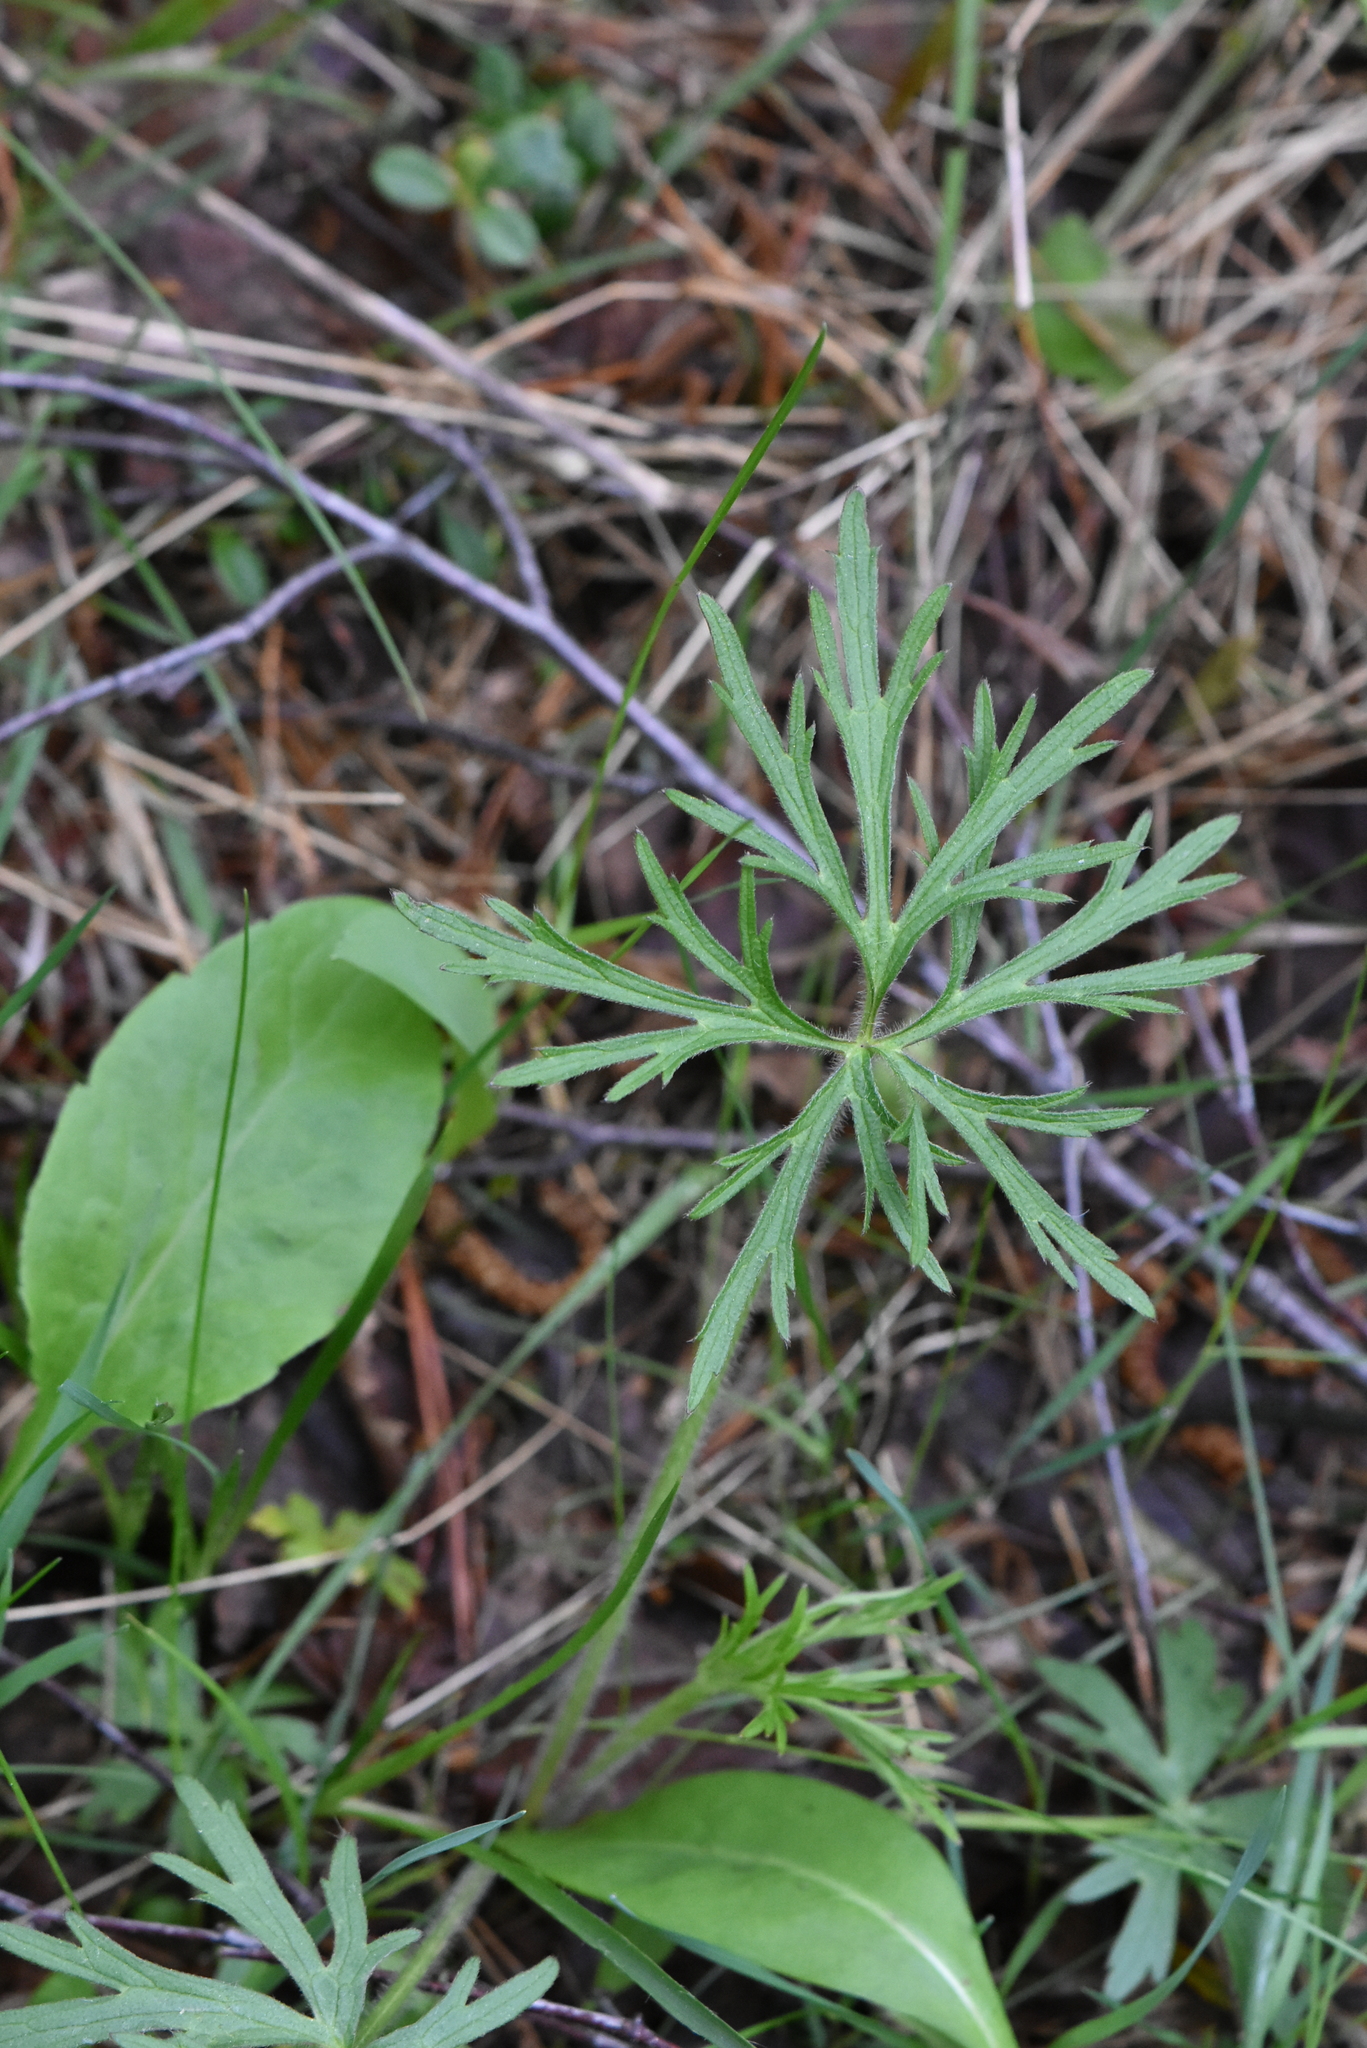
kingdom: Plantae
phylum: Tracheophyta
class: Magnoliopsida
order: Ranunculales
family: Ranunculaceae
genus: Ranunculus
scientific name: Ranunculus polyanthemos
